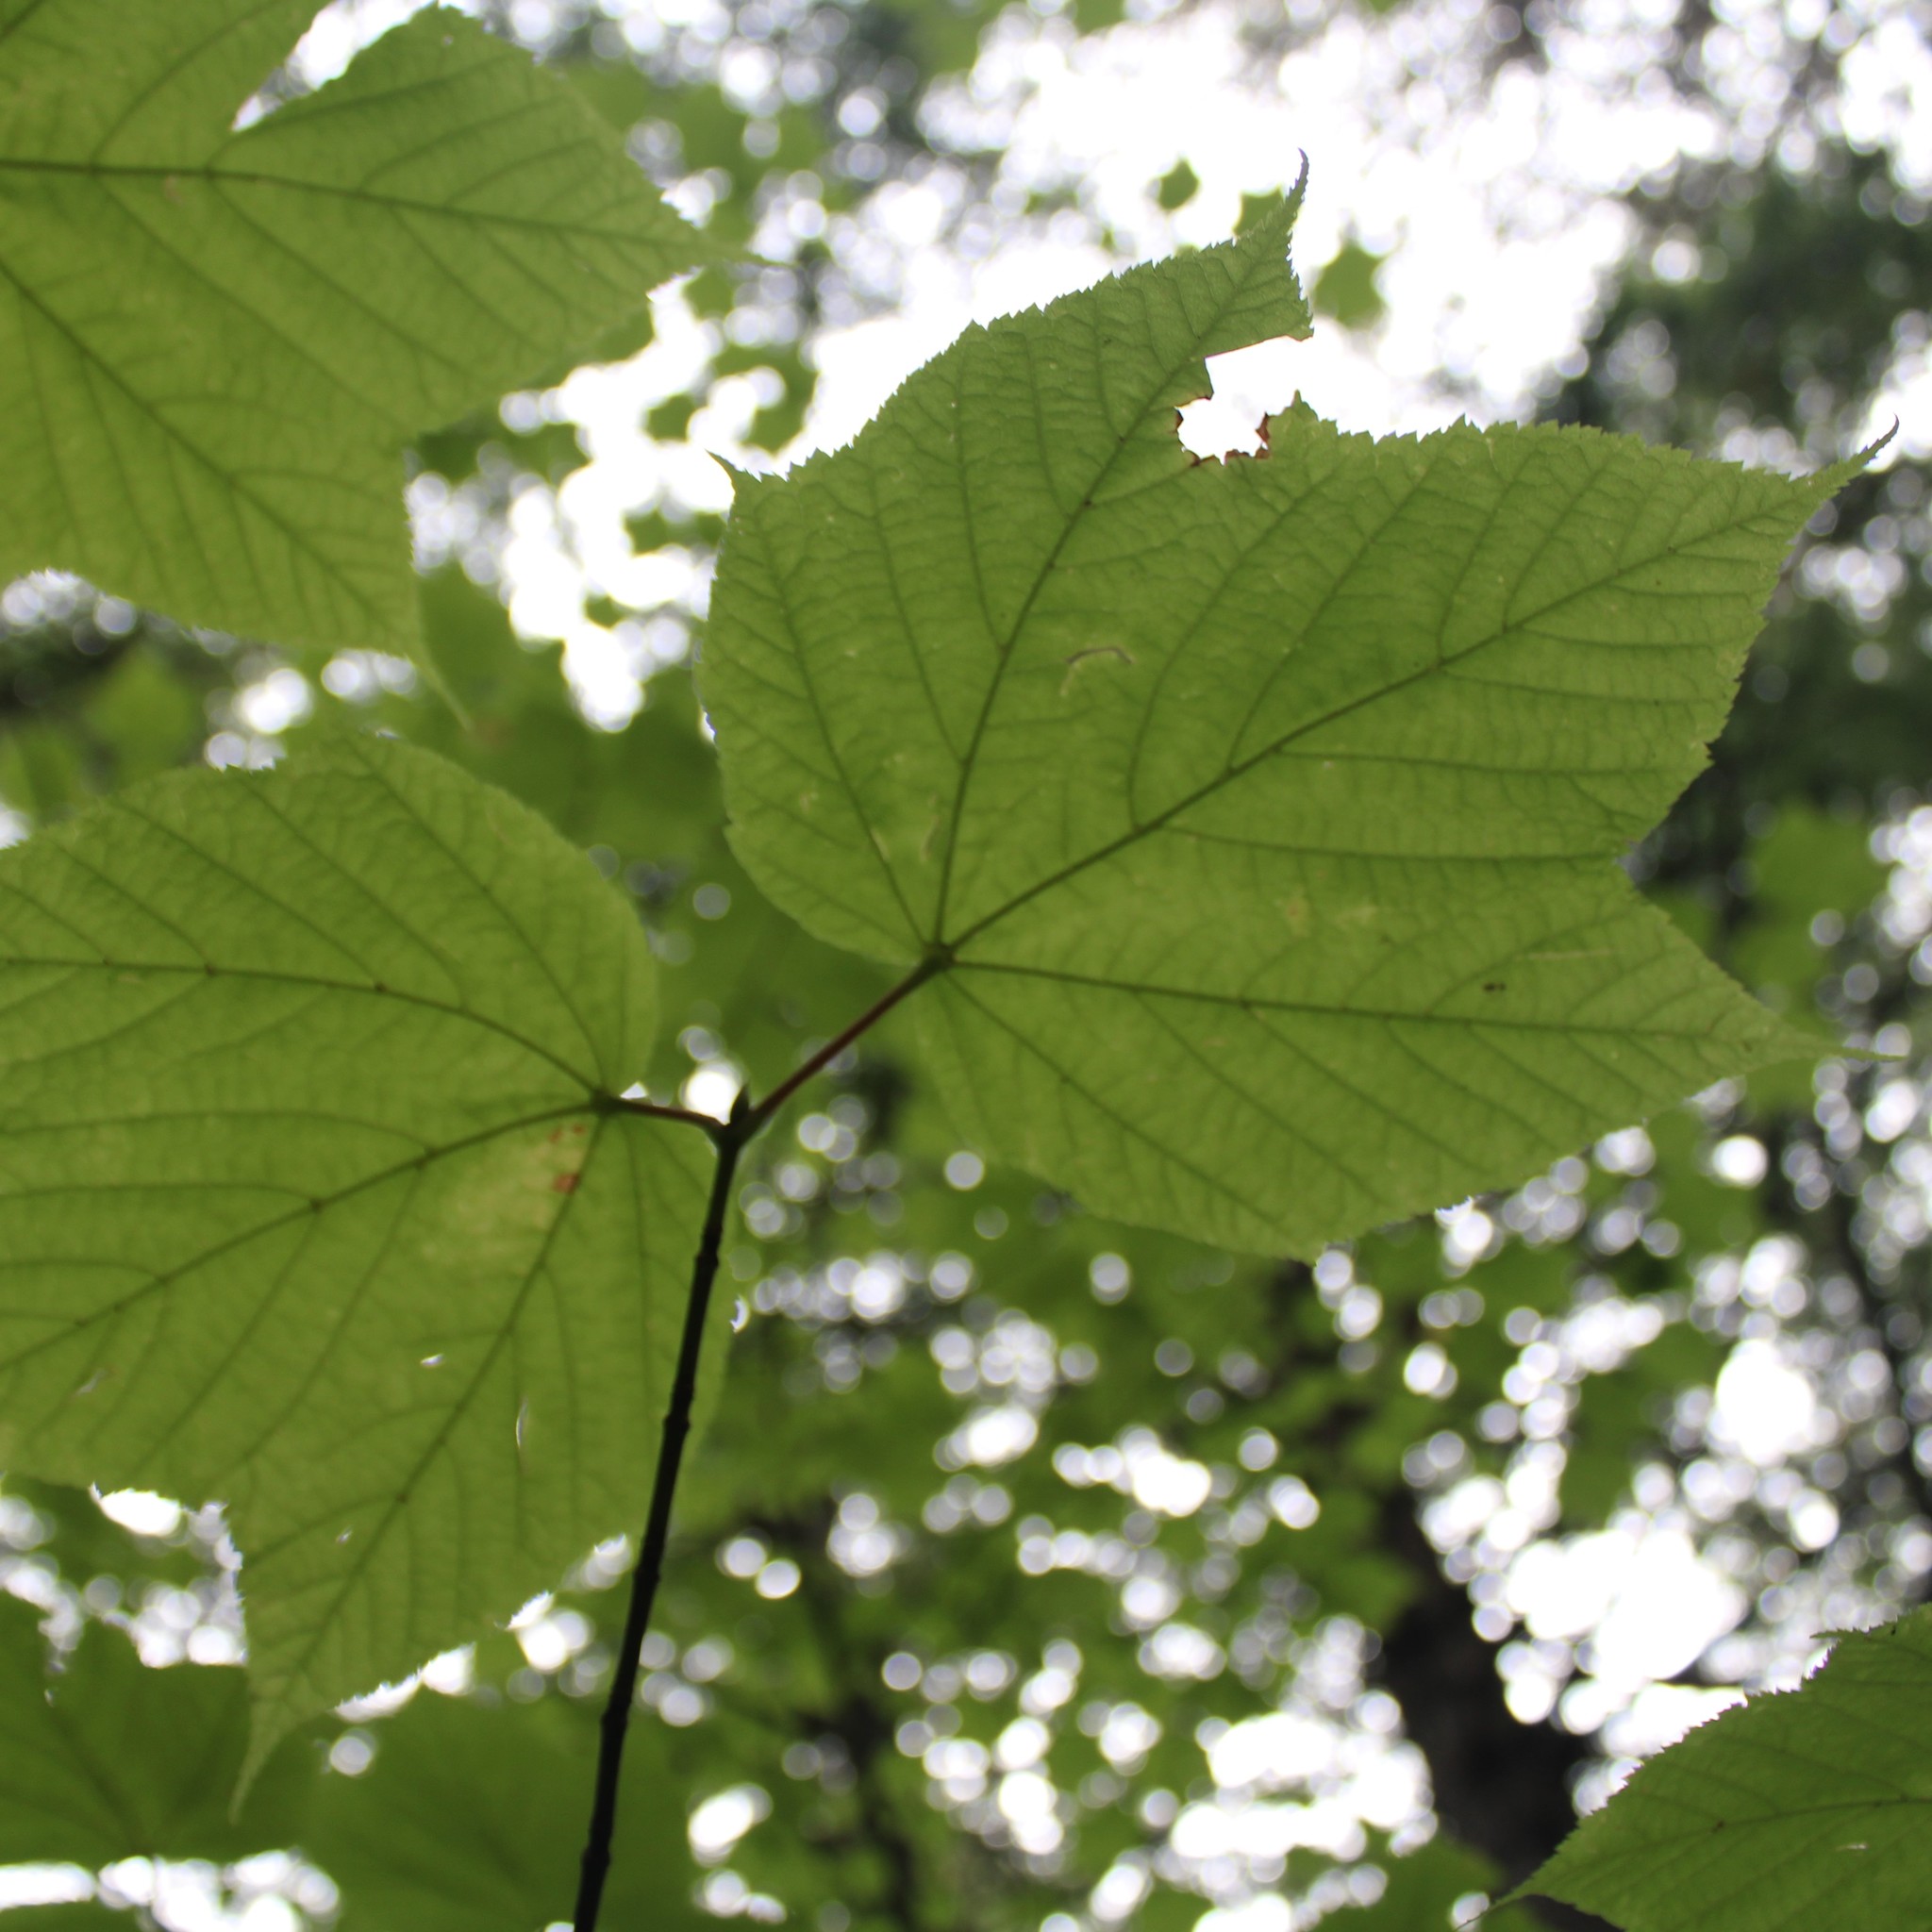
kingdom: Plantae
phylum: Tracheophyta
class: Magnoliopsida
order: Sapindales
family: Sapindaceae
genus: Acer
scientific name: Acer pensylvanicum
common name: Moosewood
